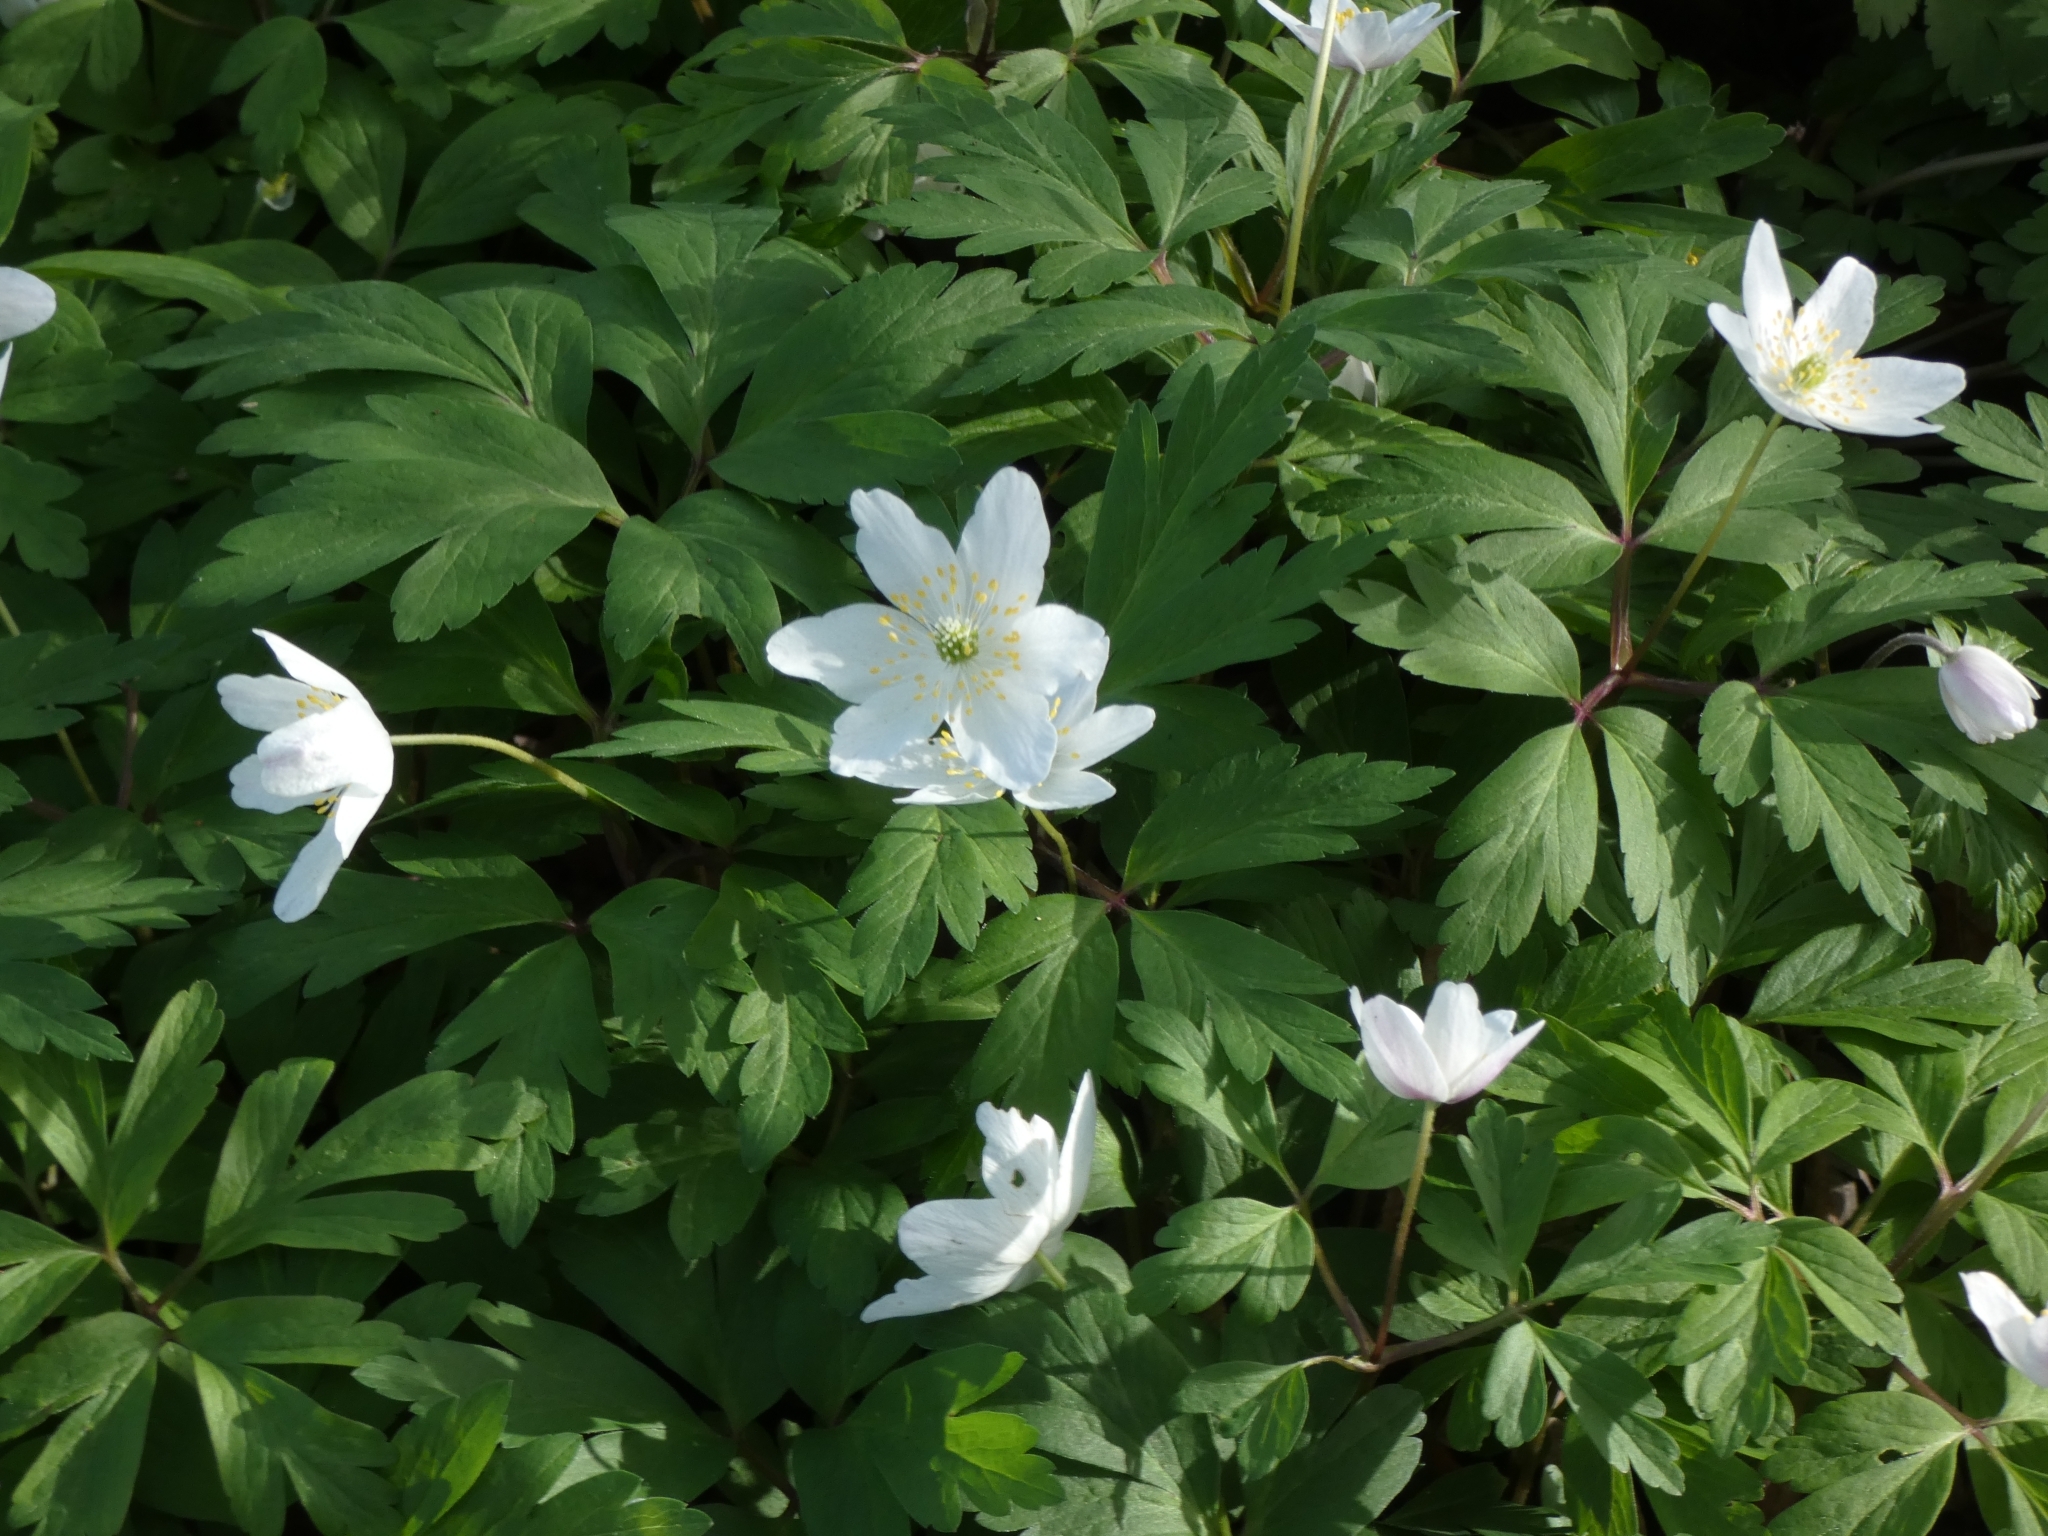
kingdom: Plantae
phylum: Tracheophyta
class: Magnoliopsida
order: Ranunculales
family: Ranunculaceae
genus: Anemone
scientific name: Anemone nemorosa
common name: Wood anemone
